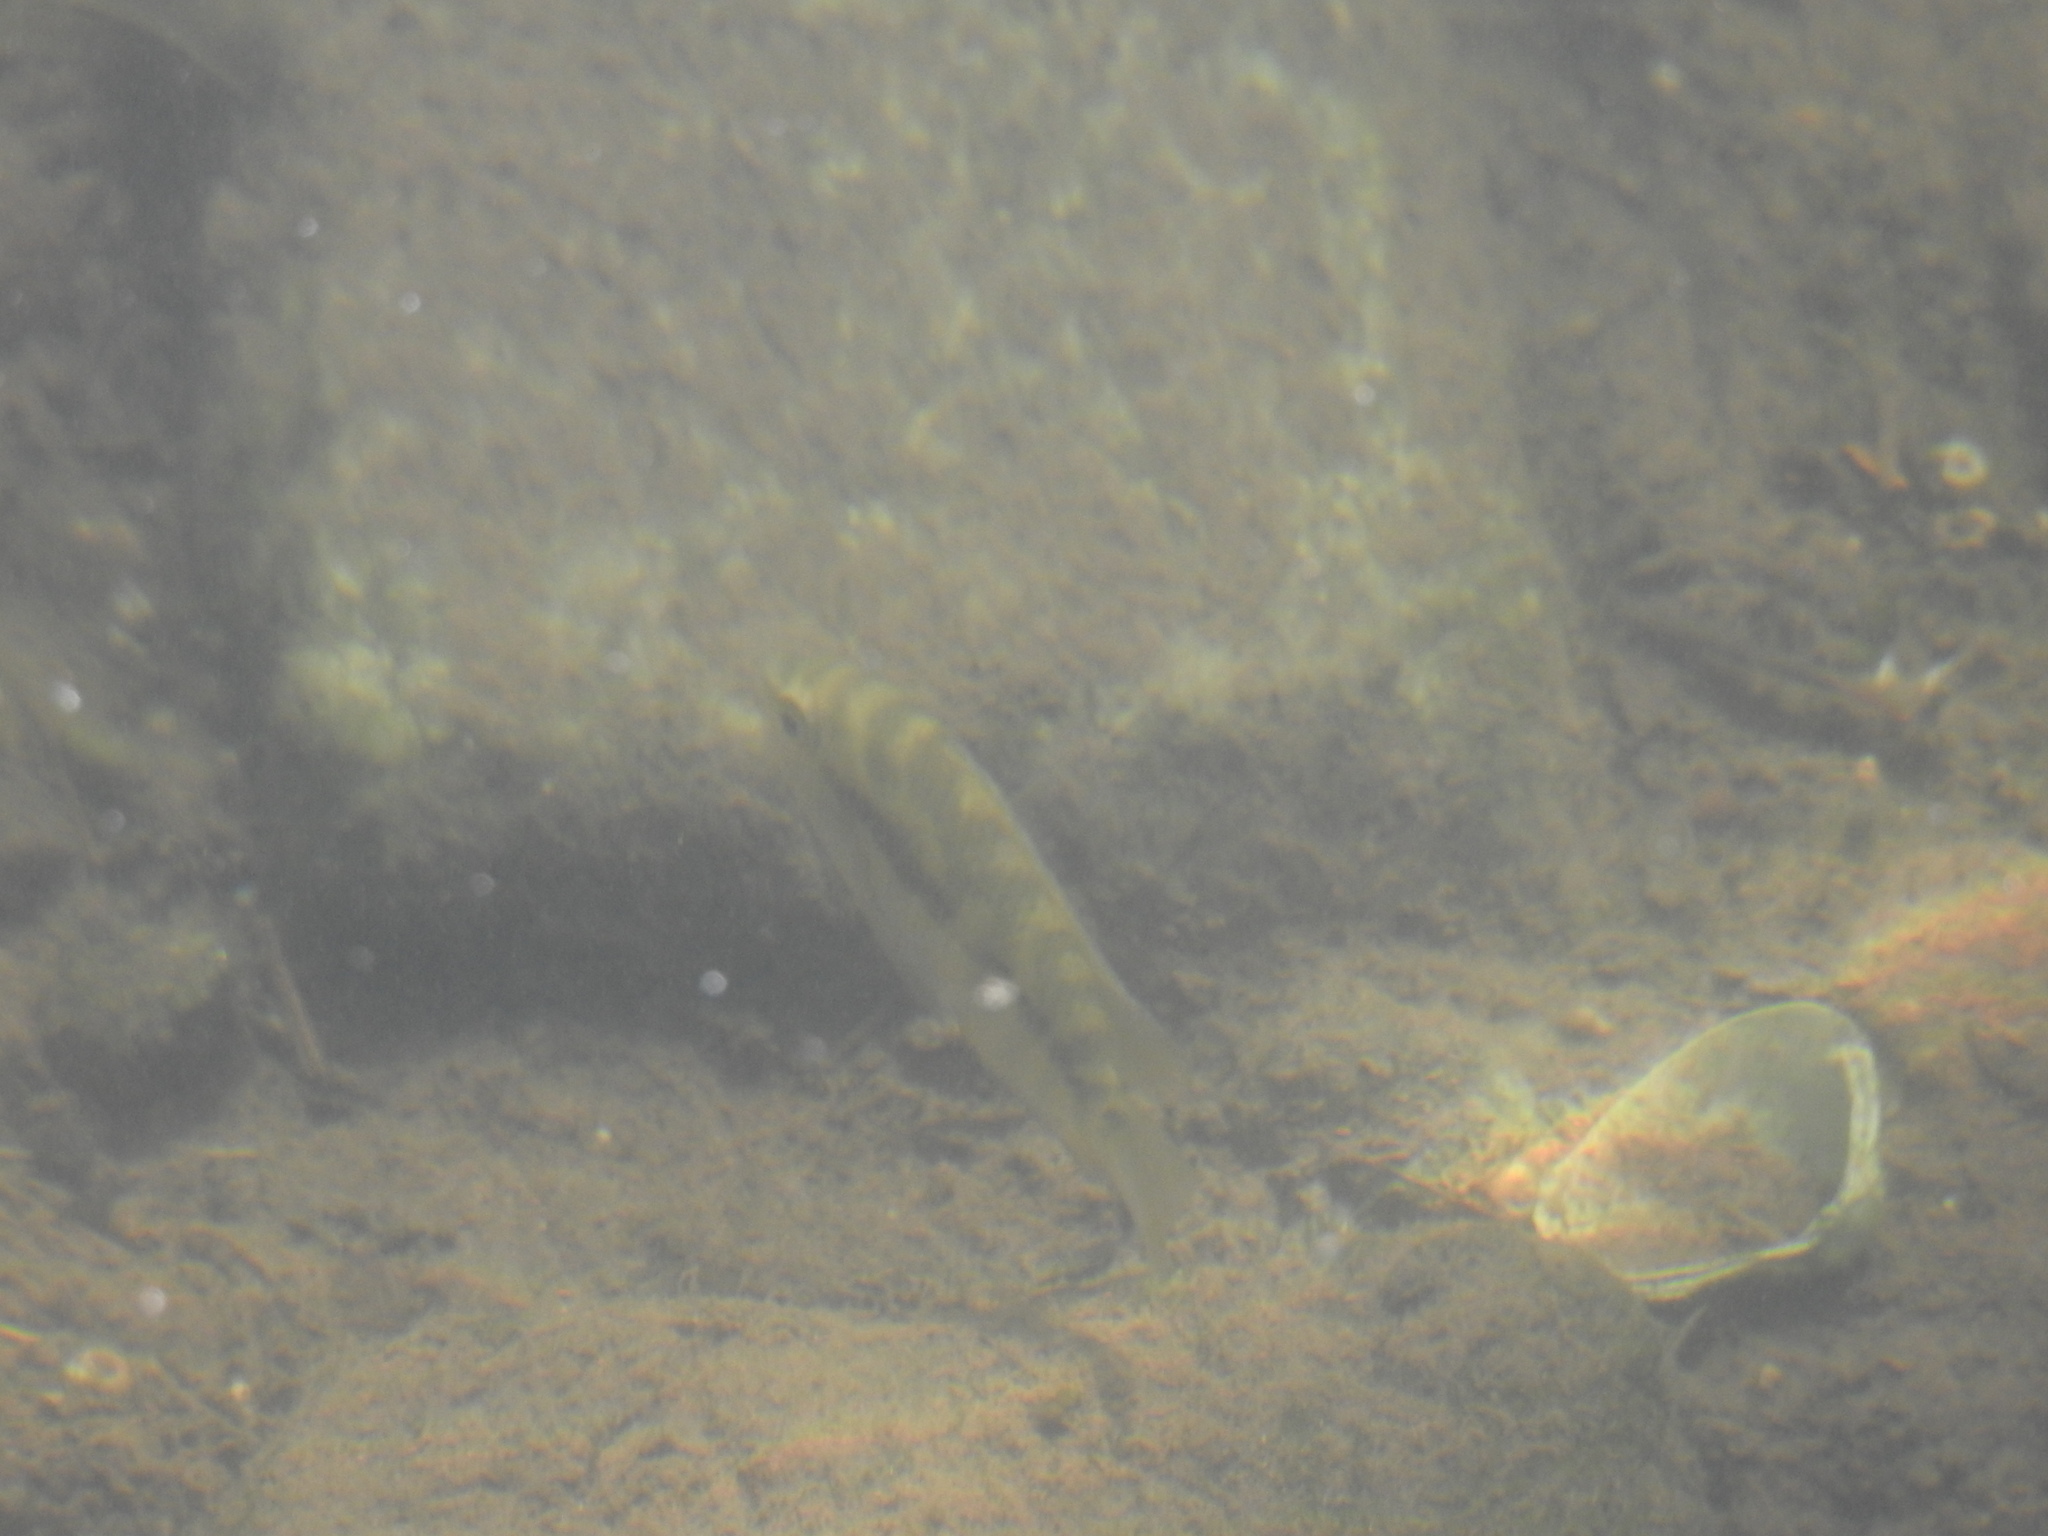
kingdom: Animalia
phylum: Chordata
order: Perciformes
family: Cichlidae
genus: Australoheros
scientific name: Australoheros facetus
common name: Chameleon cichlid
